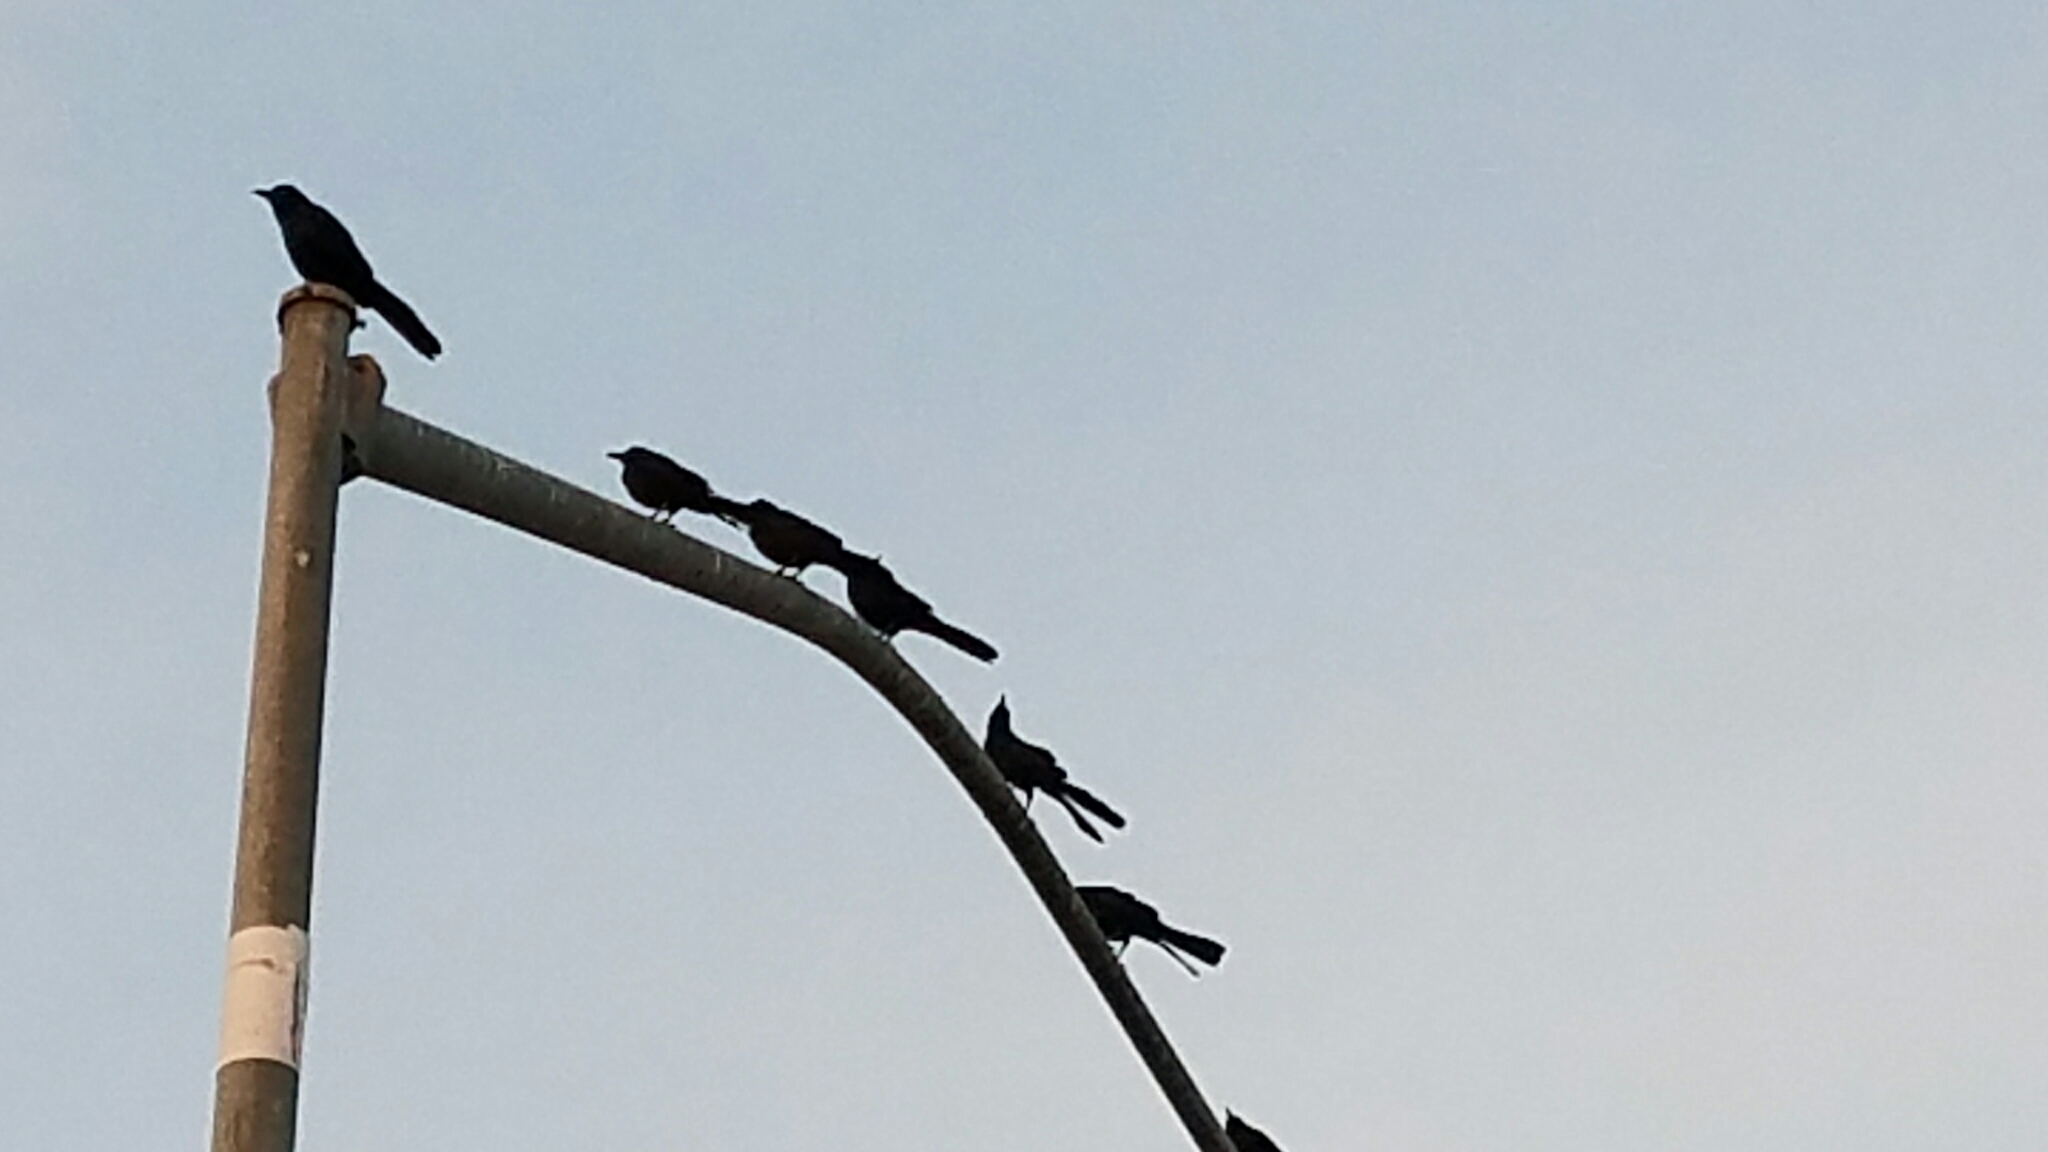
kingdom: Animalia
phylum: Chordata
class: Aves
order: Passeriformes
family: Icteridae
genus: Quiscalus
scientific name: Quiscalus mexicanus
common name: Great-tailed grackle
